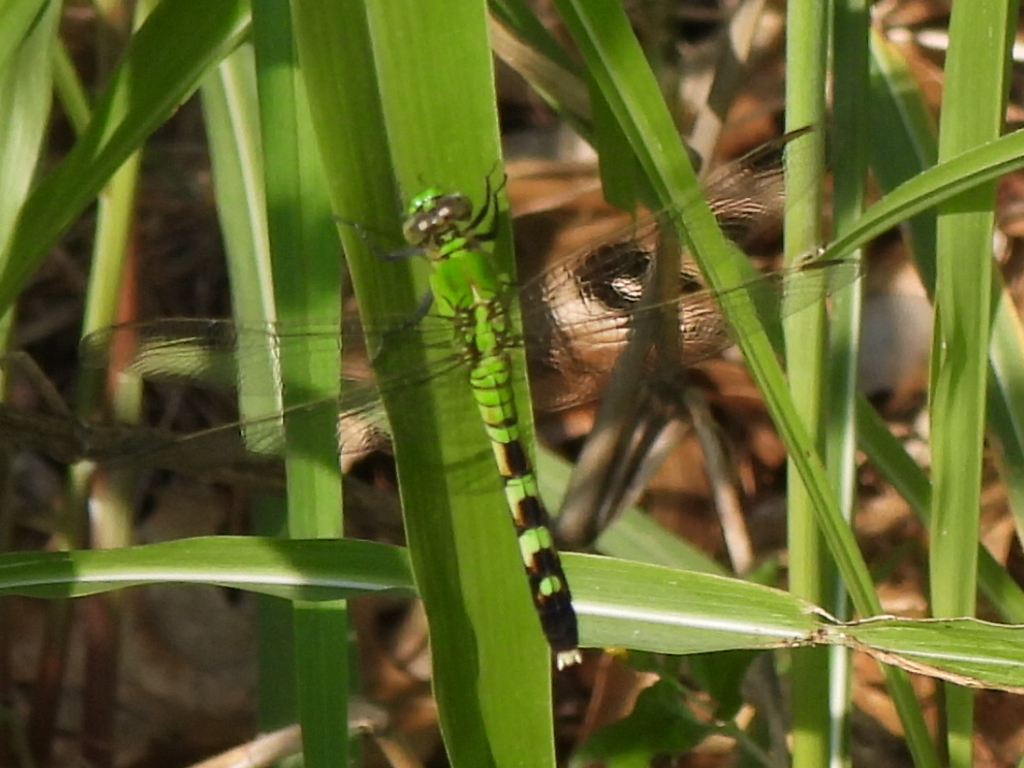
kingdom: Animalia
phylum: Arthropoda
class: Insecta
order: Odonata
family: Libellulidae
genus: Erythemis
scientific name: Erythemis simplicicollis
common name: Eastern pondhawk
